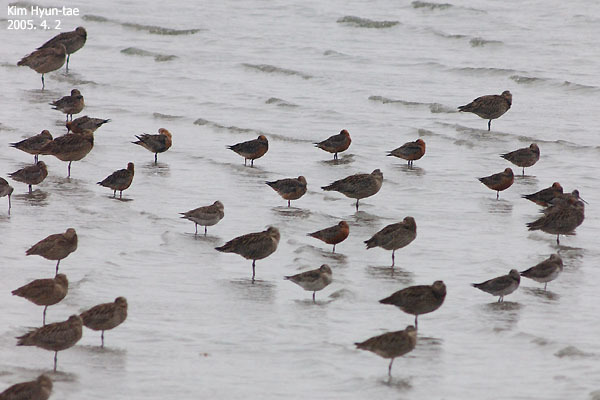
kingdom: Animalia
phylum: Chordata
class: Aves
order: Charadriiformes
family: Scolopacidae
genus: Limosa
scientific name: Limosa lapponica
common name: Bar-tailed godwit
